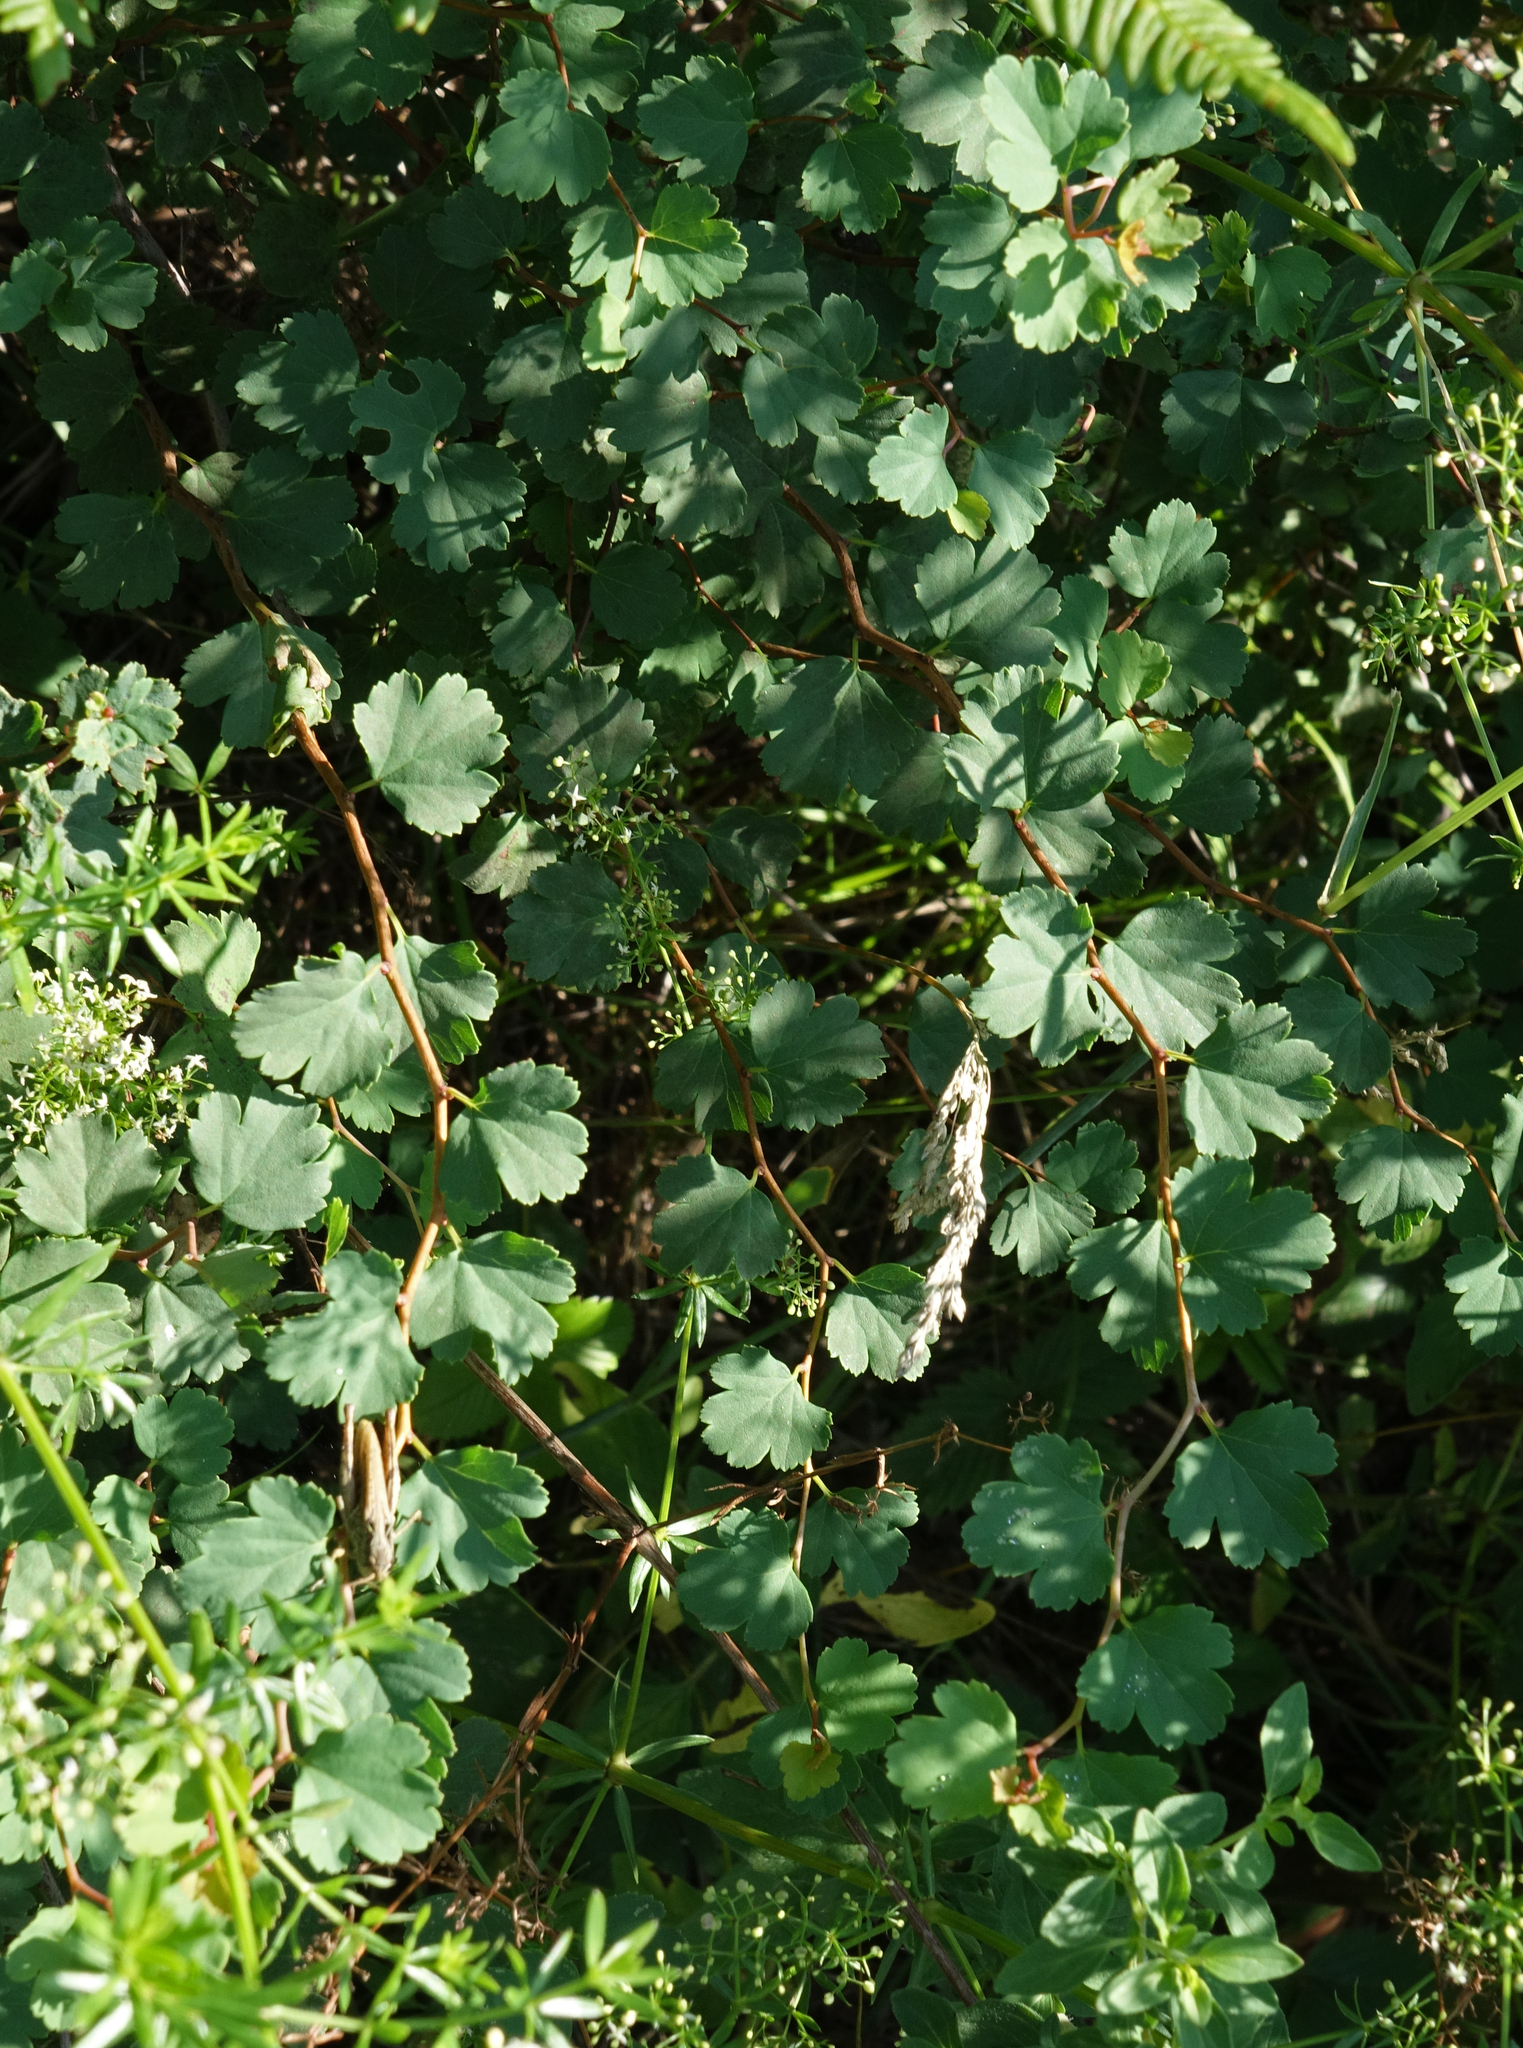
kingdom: Plantae
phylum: Tracheophyta
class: Magnoliopsida
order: Rosales
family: Rosaceae
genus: Spiraea
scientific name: Spiraea trilobata
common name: Asian meadowsweet
